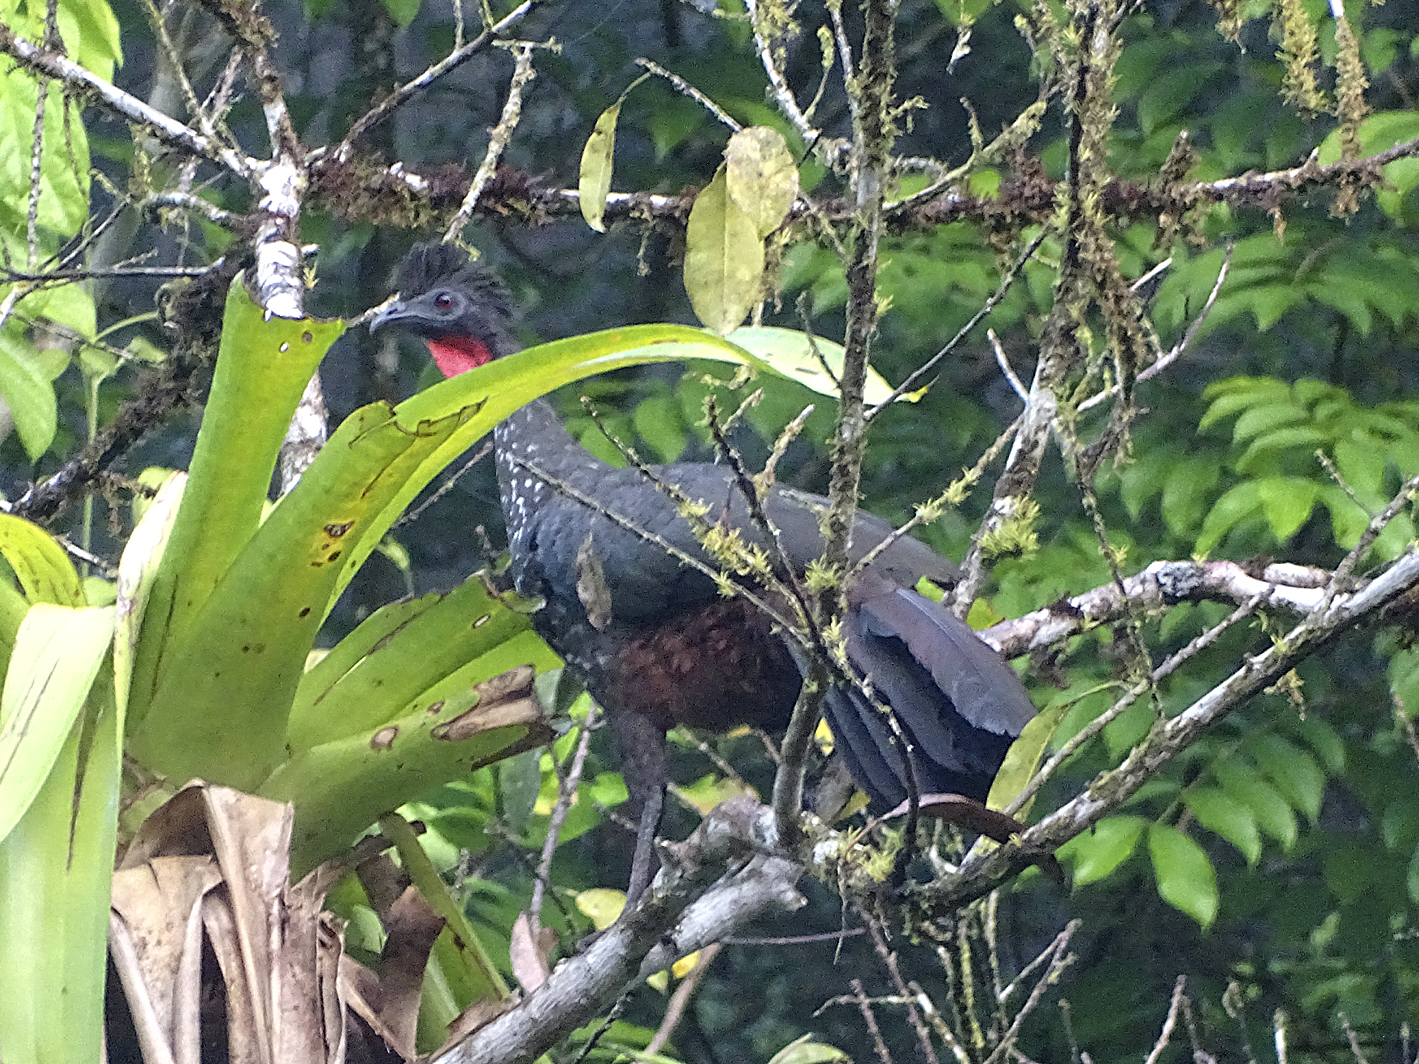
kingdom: Animalia
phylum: Chordata
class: Aves
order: Galliformes
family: Cracidae
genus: Penelope
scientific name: Penelope purpurascens
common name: Crested guan
